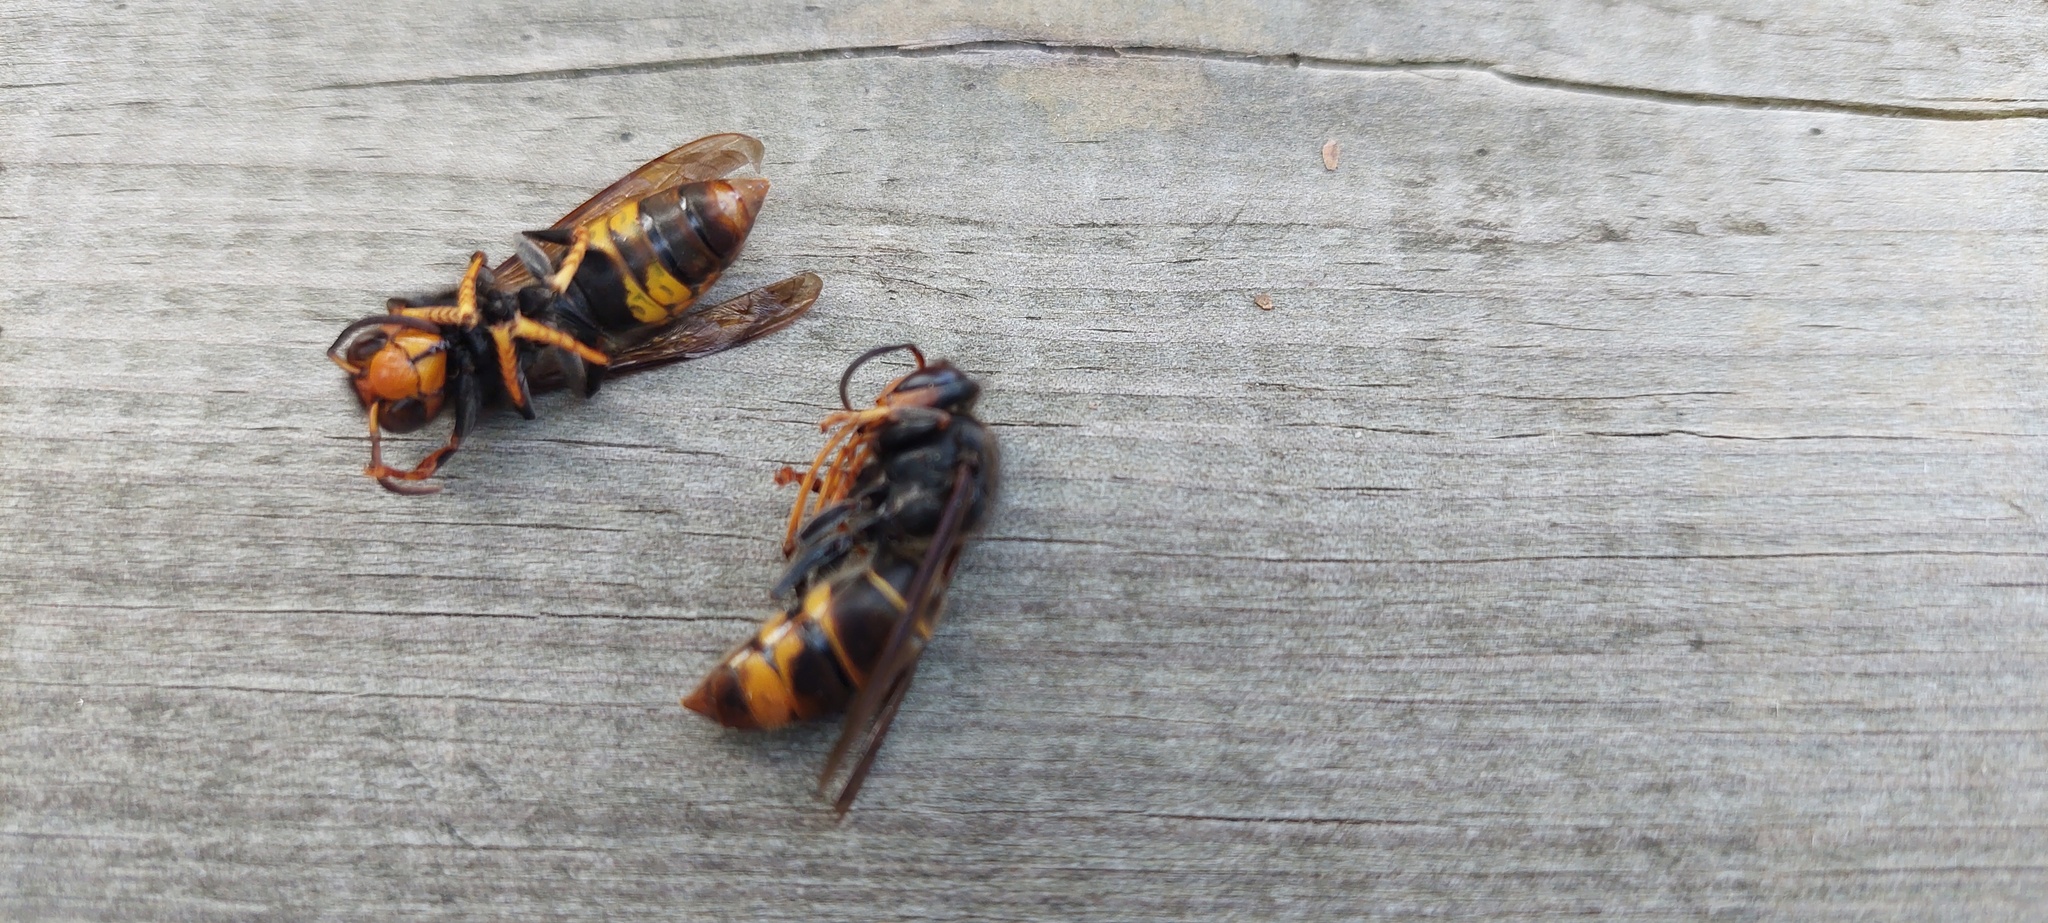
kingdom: Animalia
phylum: Arthropoda
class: Insecta
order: Hymenoptera
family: Vespidae
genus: Vespa
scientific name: Vespa velutina
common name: Asian hornet
